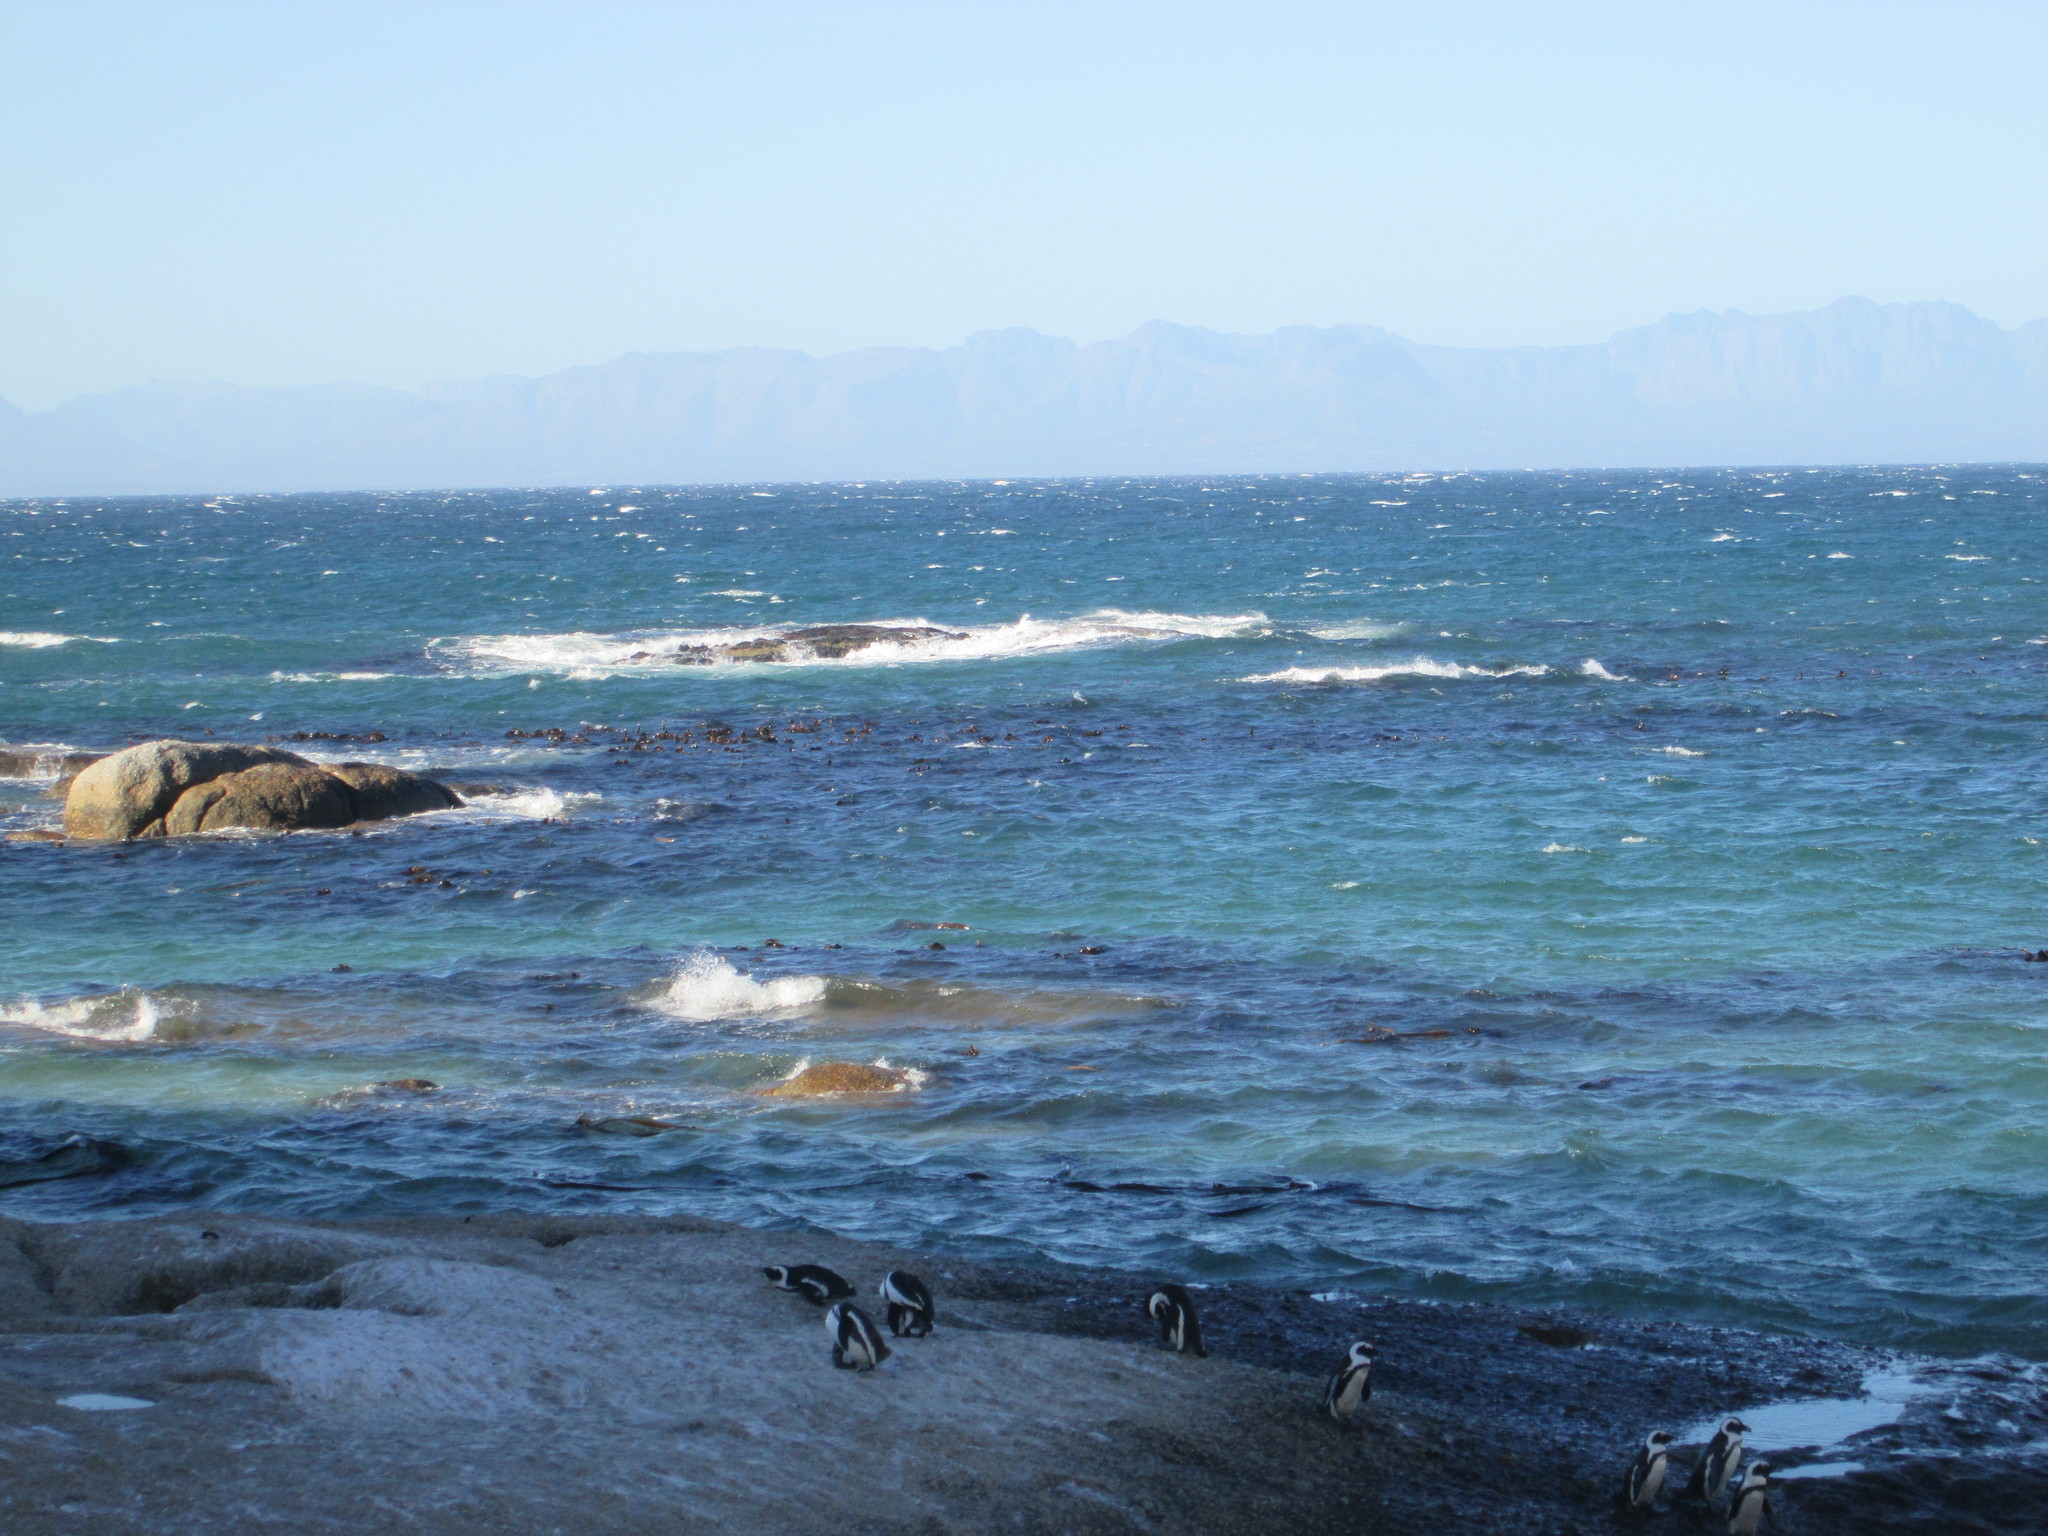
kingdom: Animalia
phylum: Chordata
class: Aves
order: Sphenisciformes
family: Spheniscidae
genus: Spheniscus
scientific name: Spheniscus demersus
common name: African penguin
